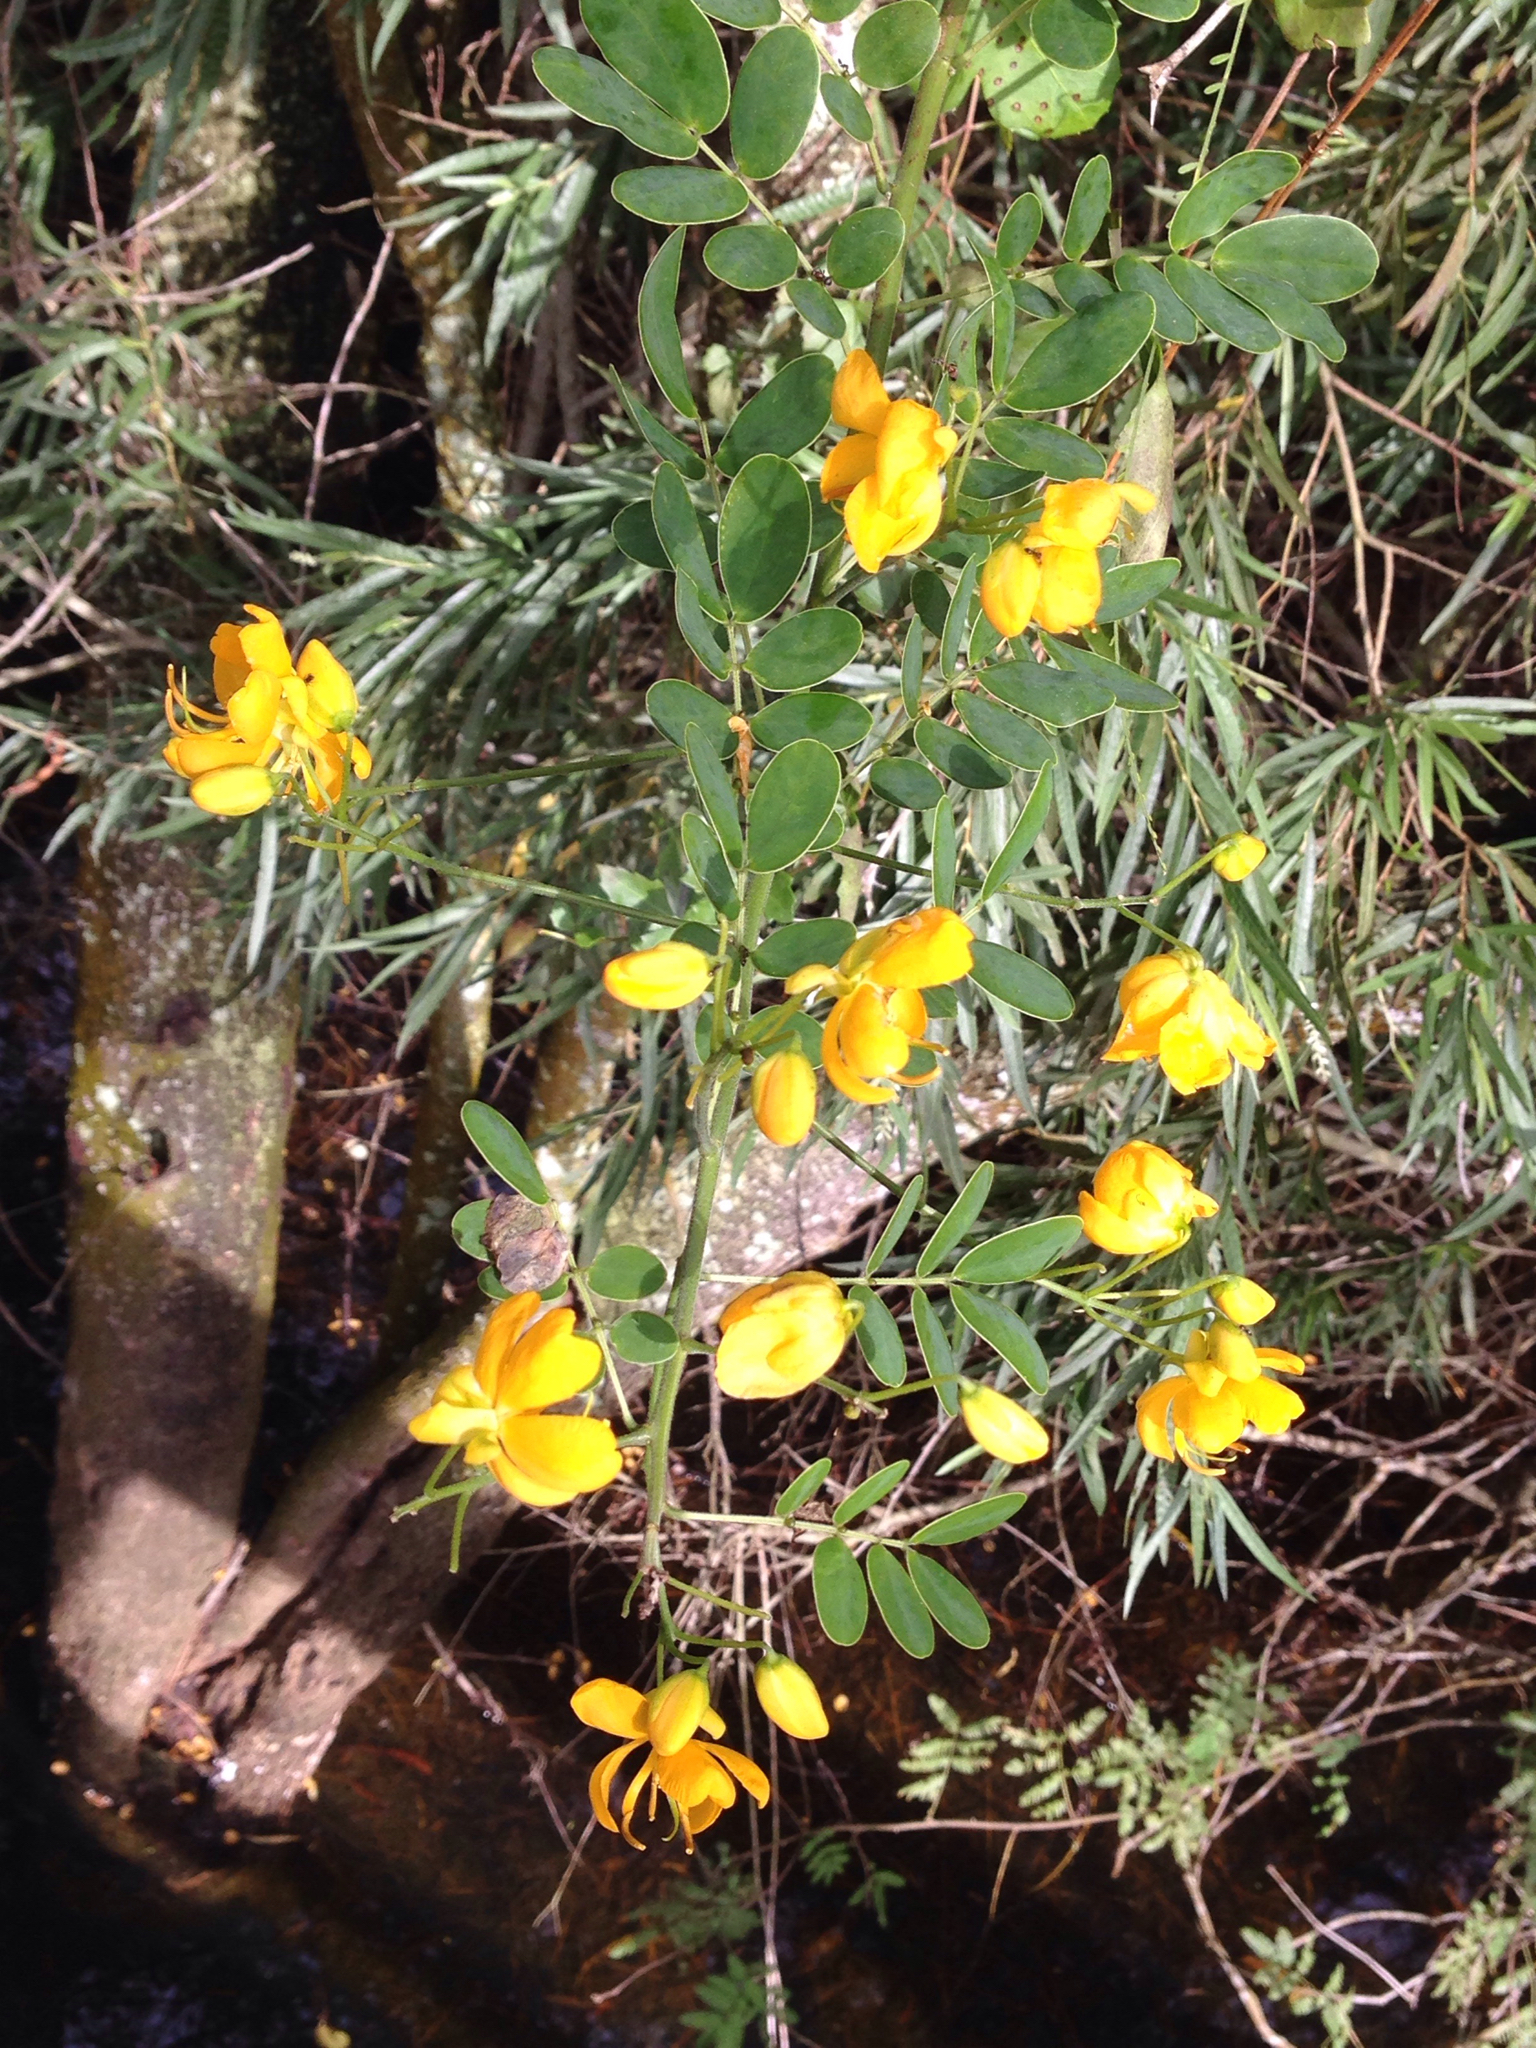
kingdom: Plantae
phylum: Tracheophyta
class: Magnoliopsida
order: Fabales
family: Fabaceae
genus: Senna
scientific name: Senna pendula
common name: Easter cassia
